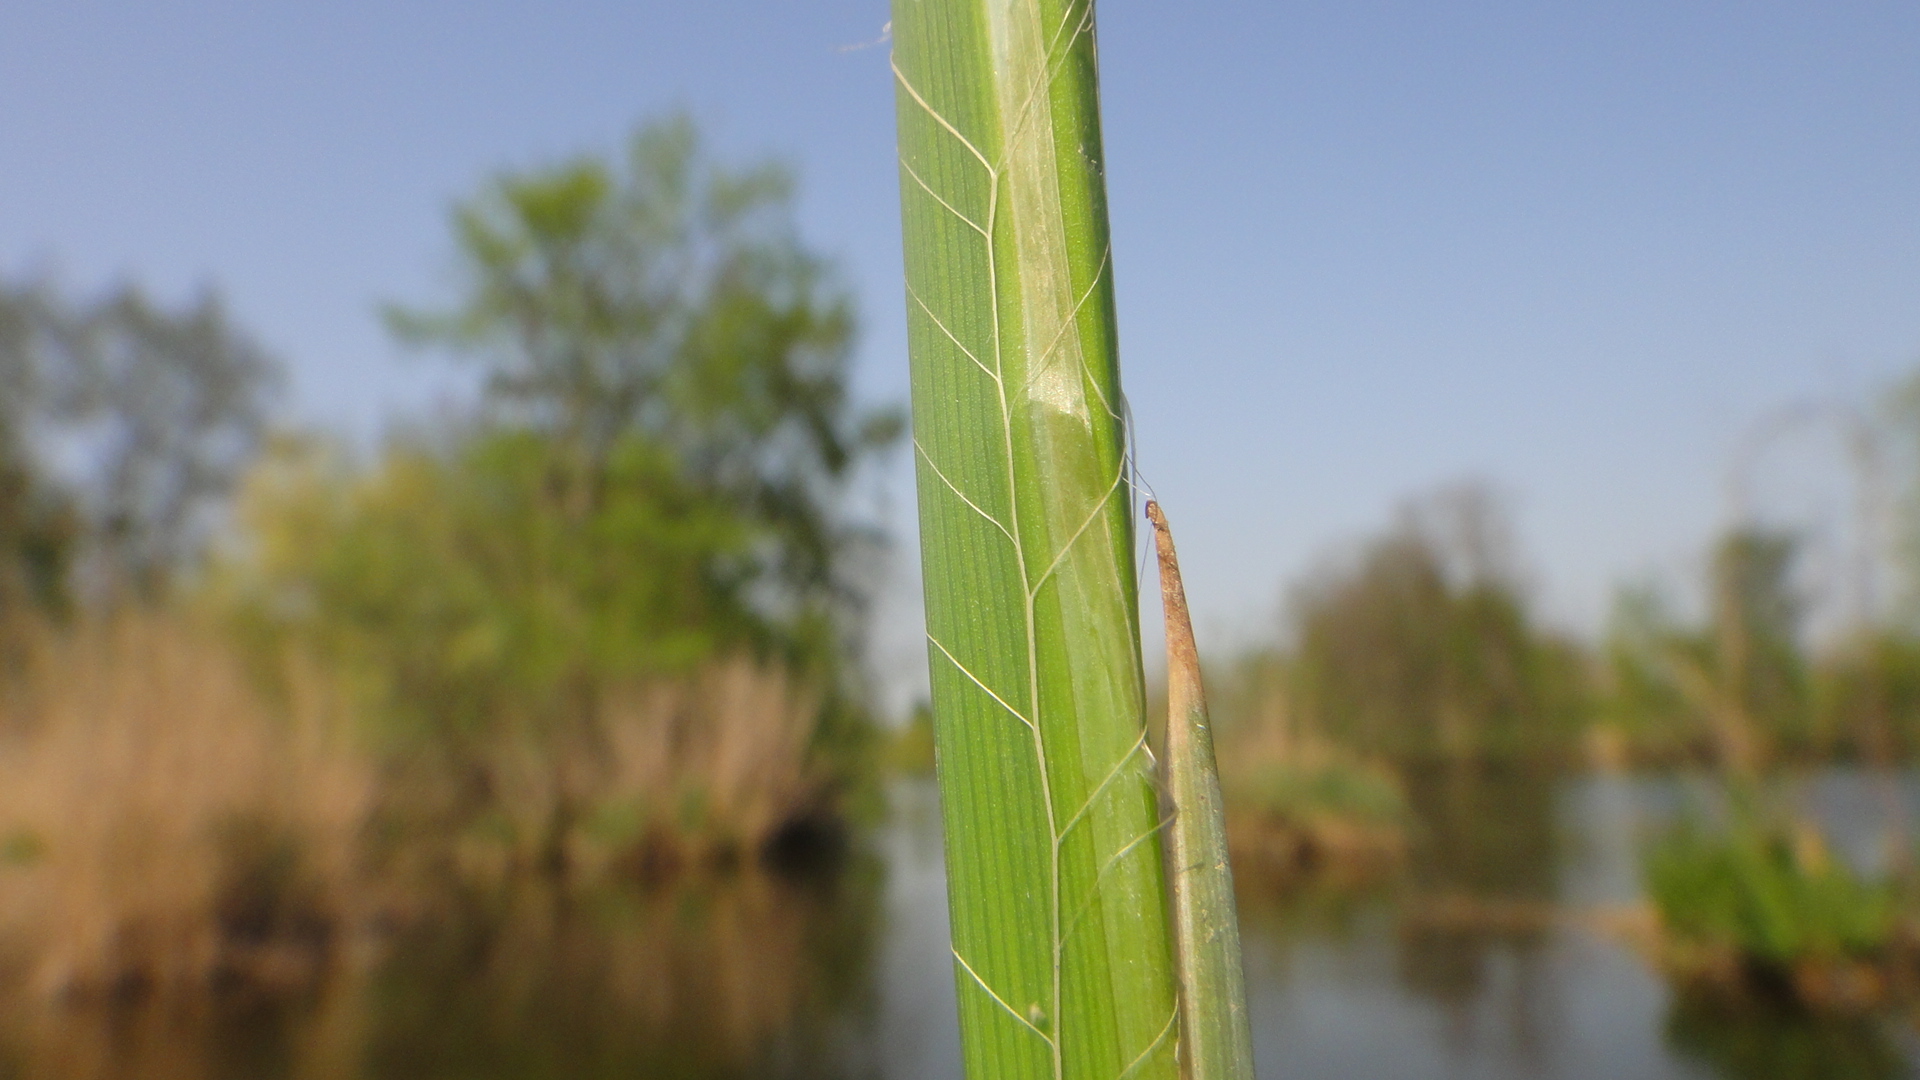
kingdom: Plantae
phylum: Tracheophyta
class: Liliopsida
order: Poales
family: Cyperaceae
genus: Carex
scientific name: Carex acutiformis
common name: Lesser pond-sedge
